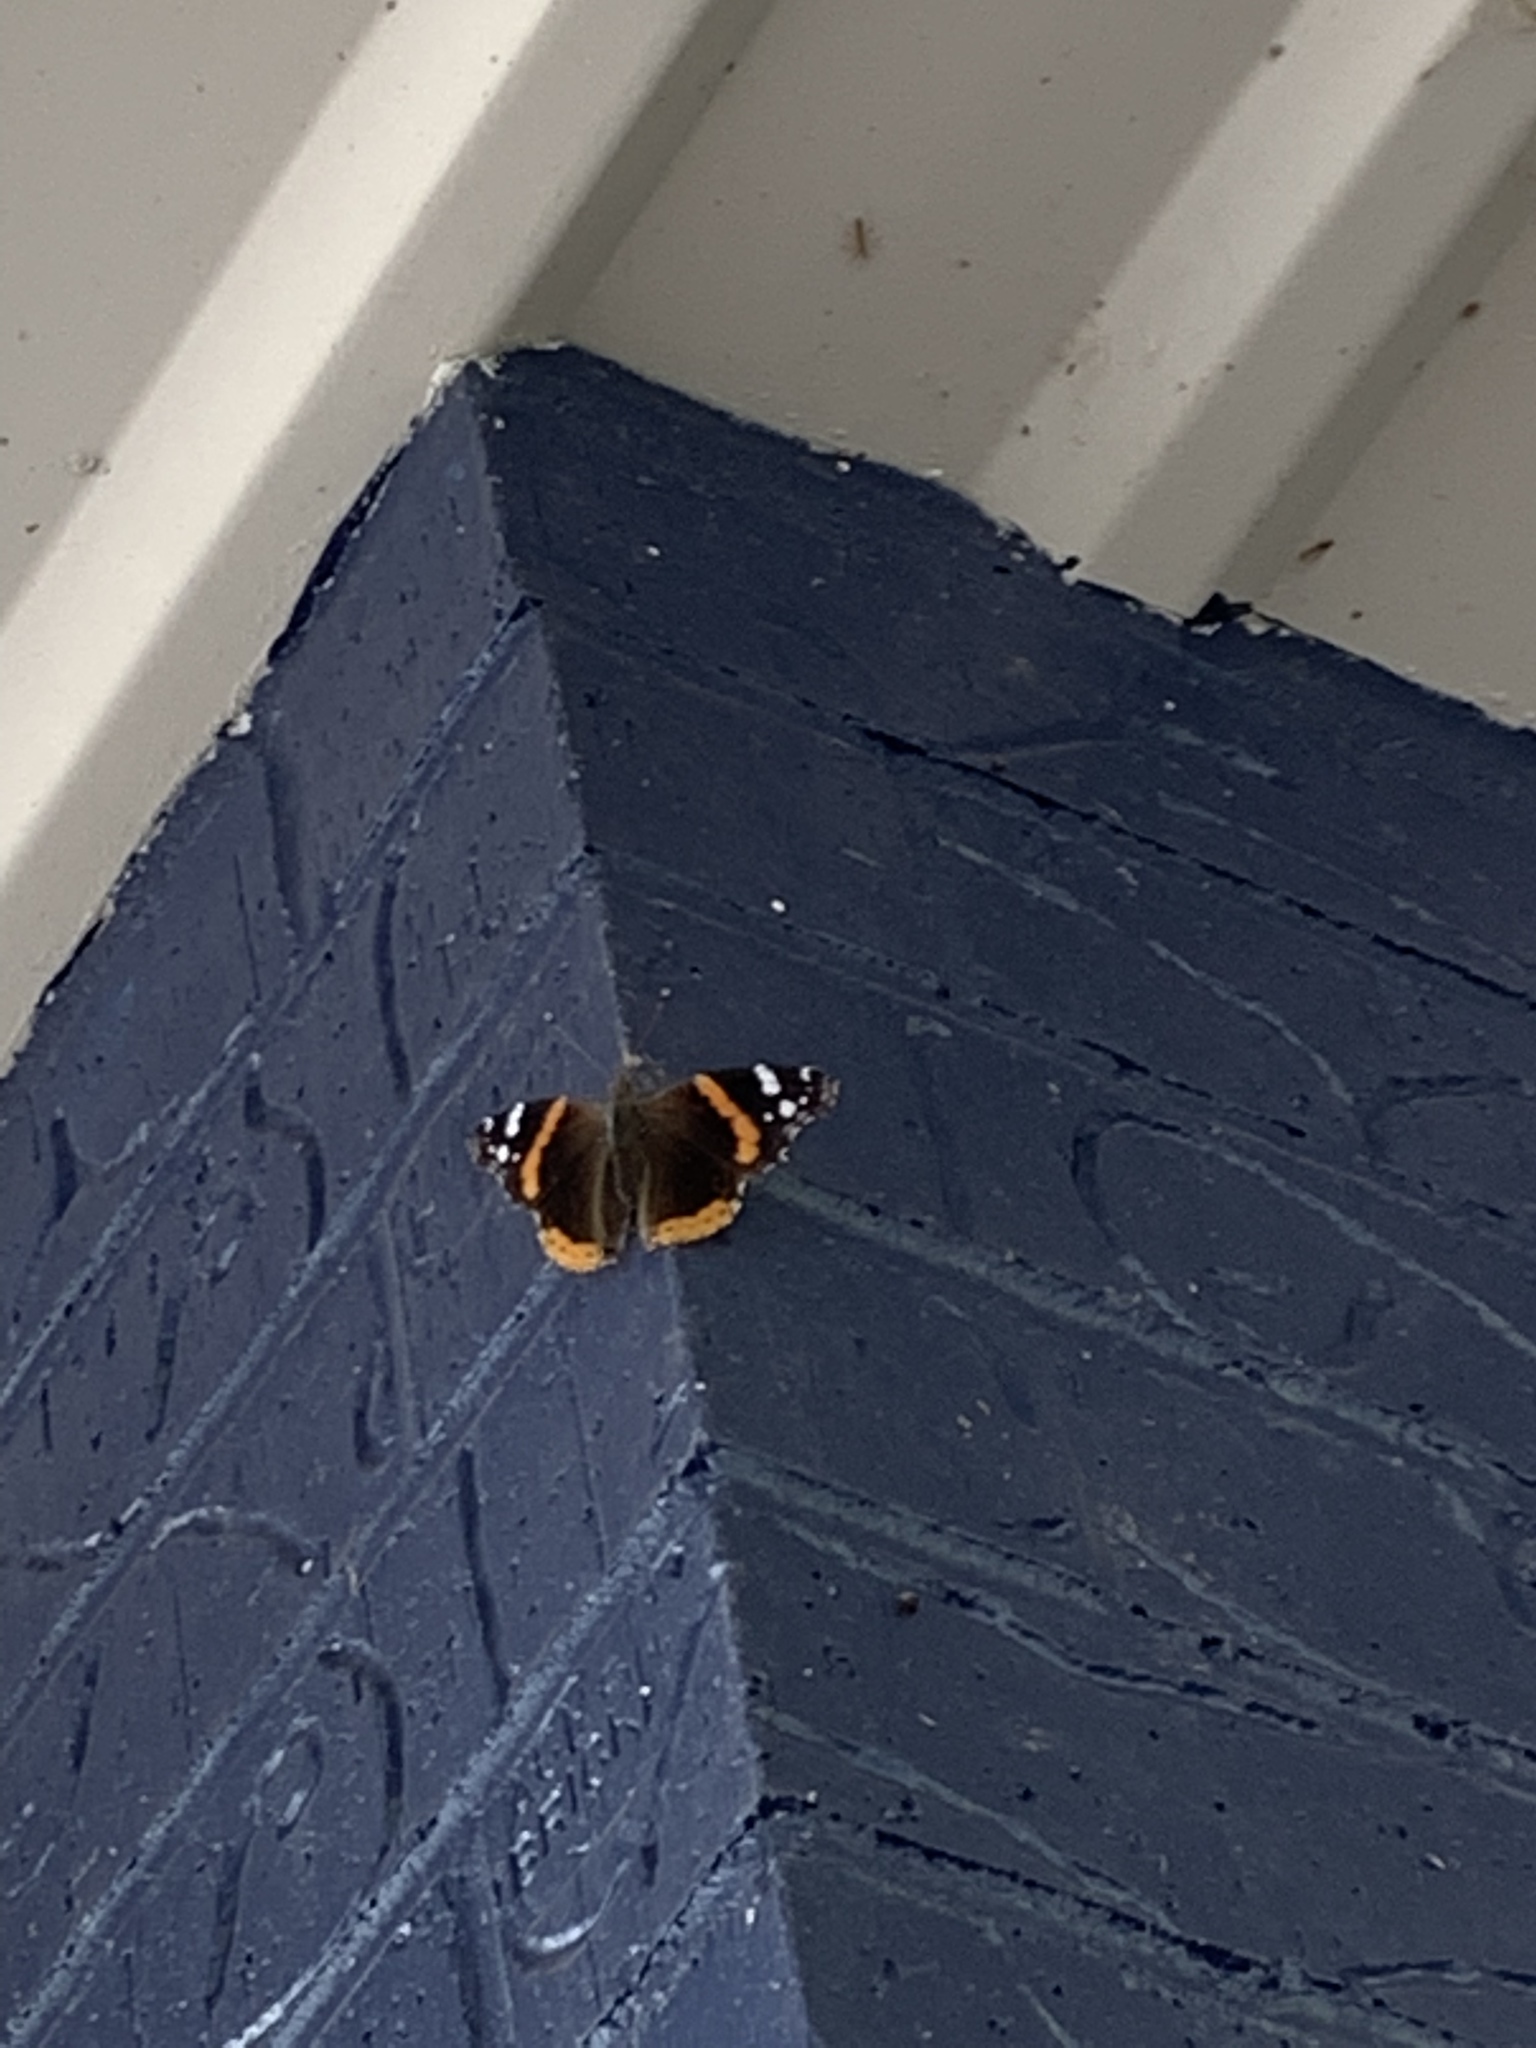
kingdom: Animalia
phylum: Arthropoda
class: Insecta
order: Lepidoptera
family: Nymphalidae
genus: Vanessa
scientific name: Vanessa atalanta
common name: Red admiral
